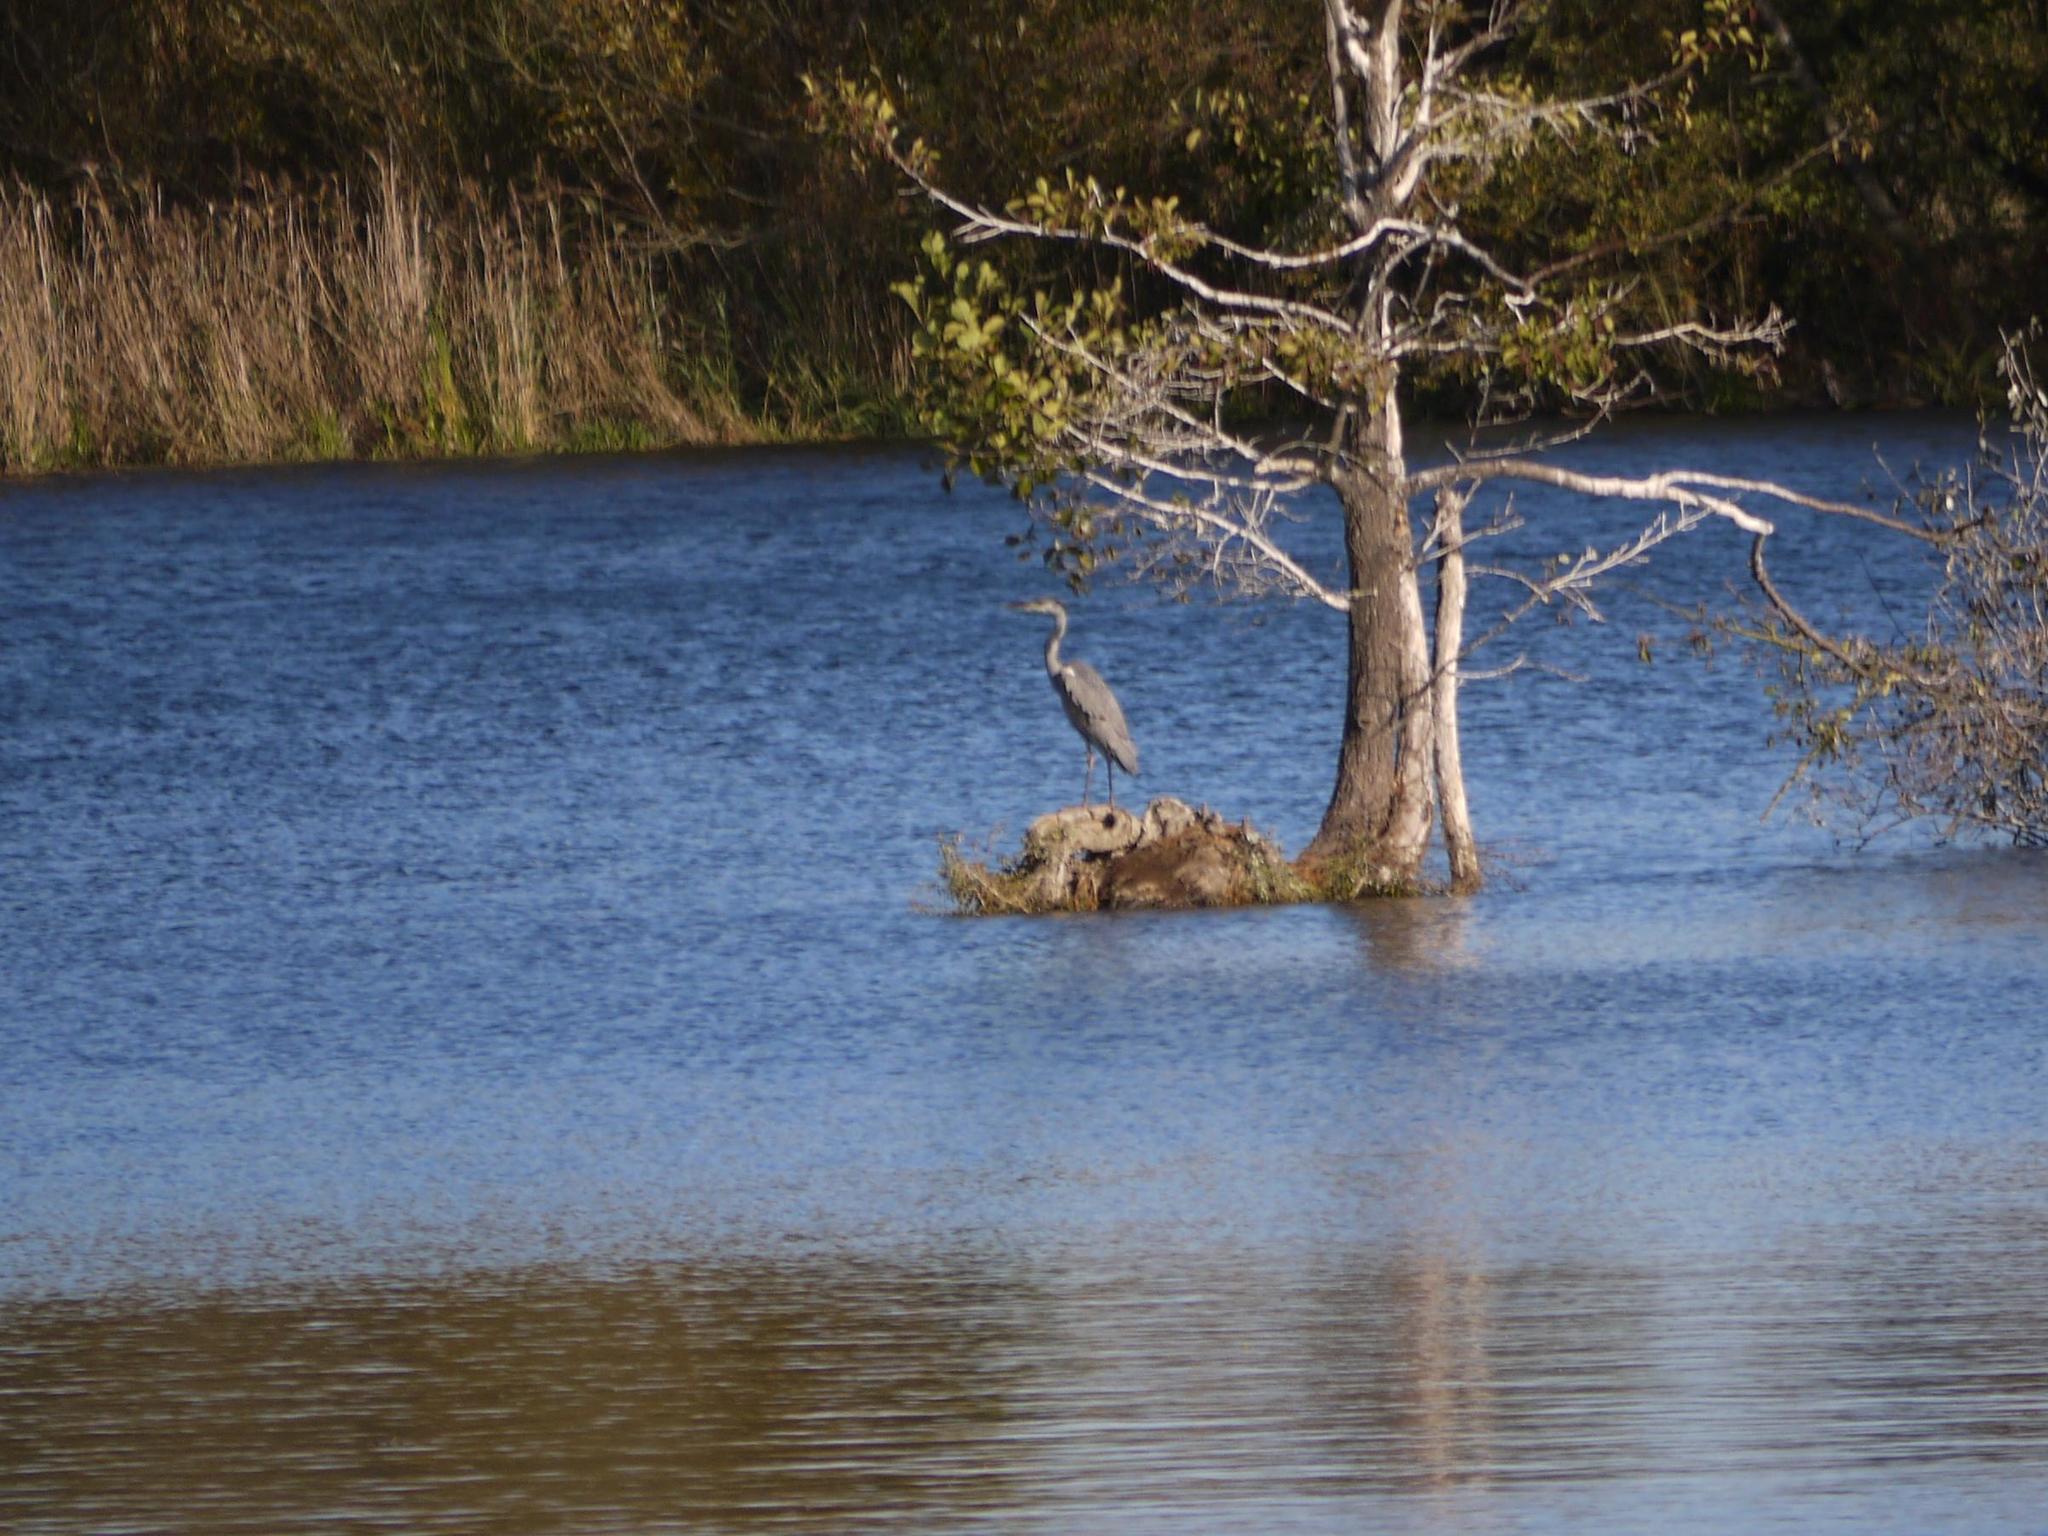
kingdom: Animalia
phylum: Chordata
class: Aves
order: Pelecaniformes
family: Ardeidae
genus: Ardea
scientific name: Ardea cinerea
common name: Grey heron
